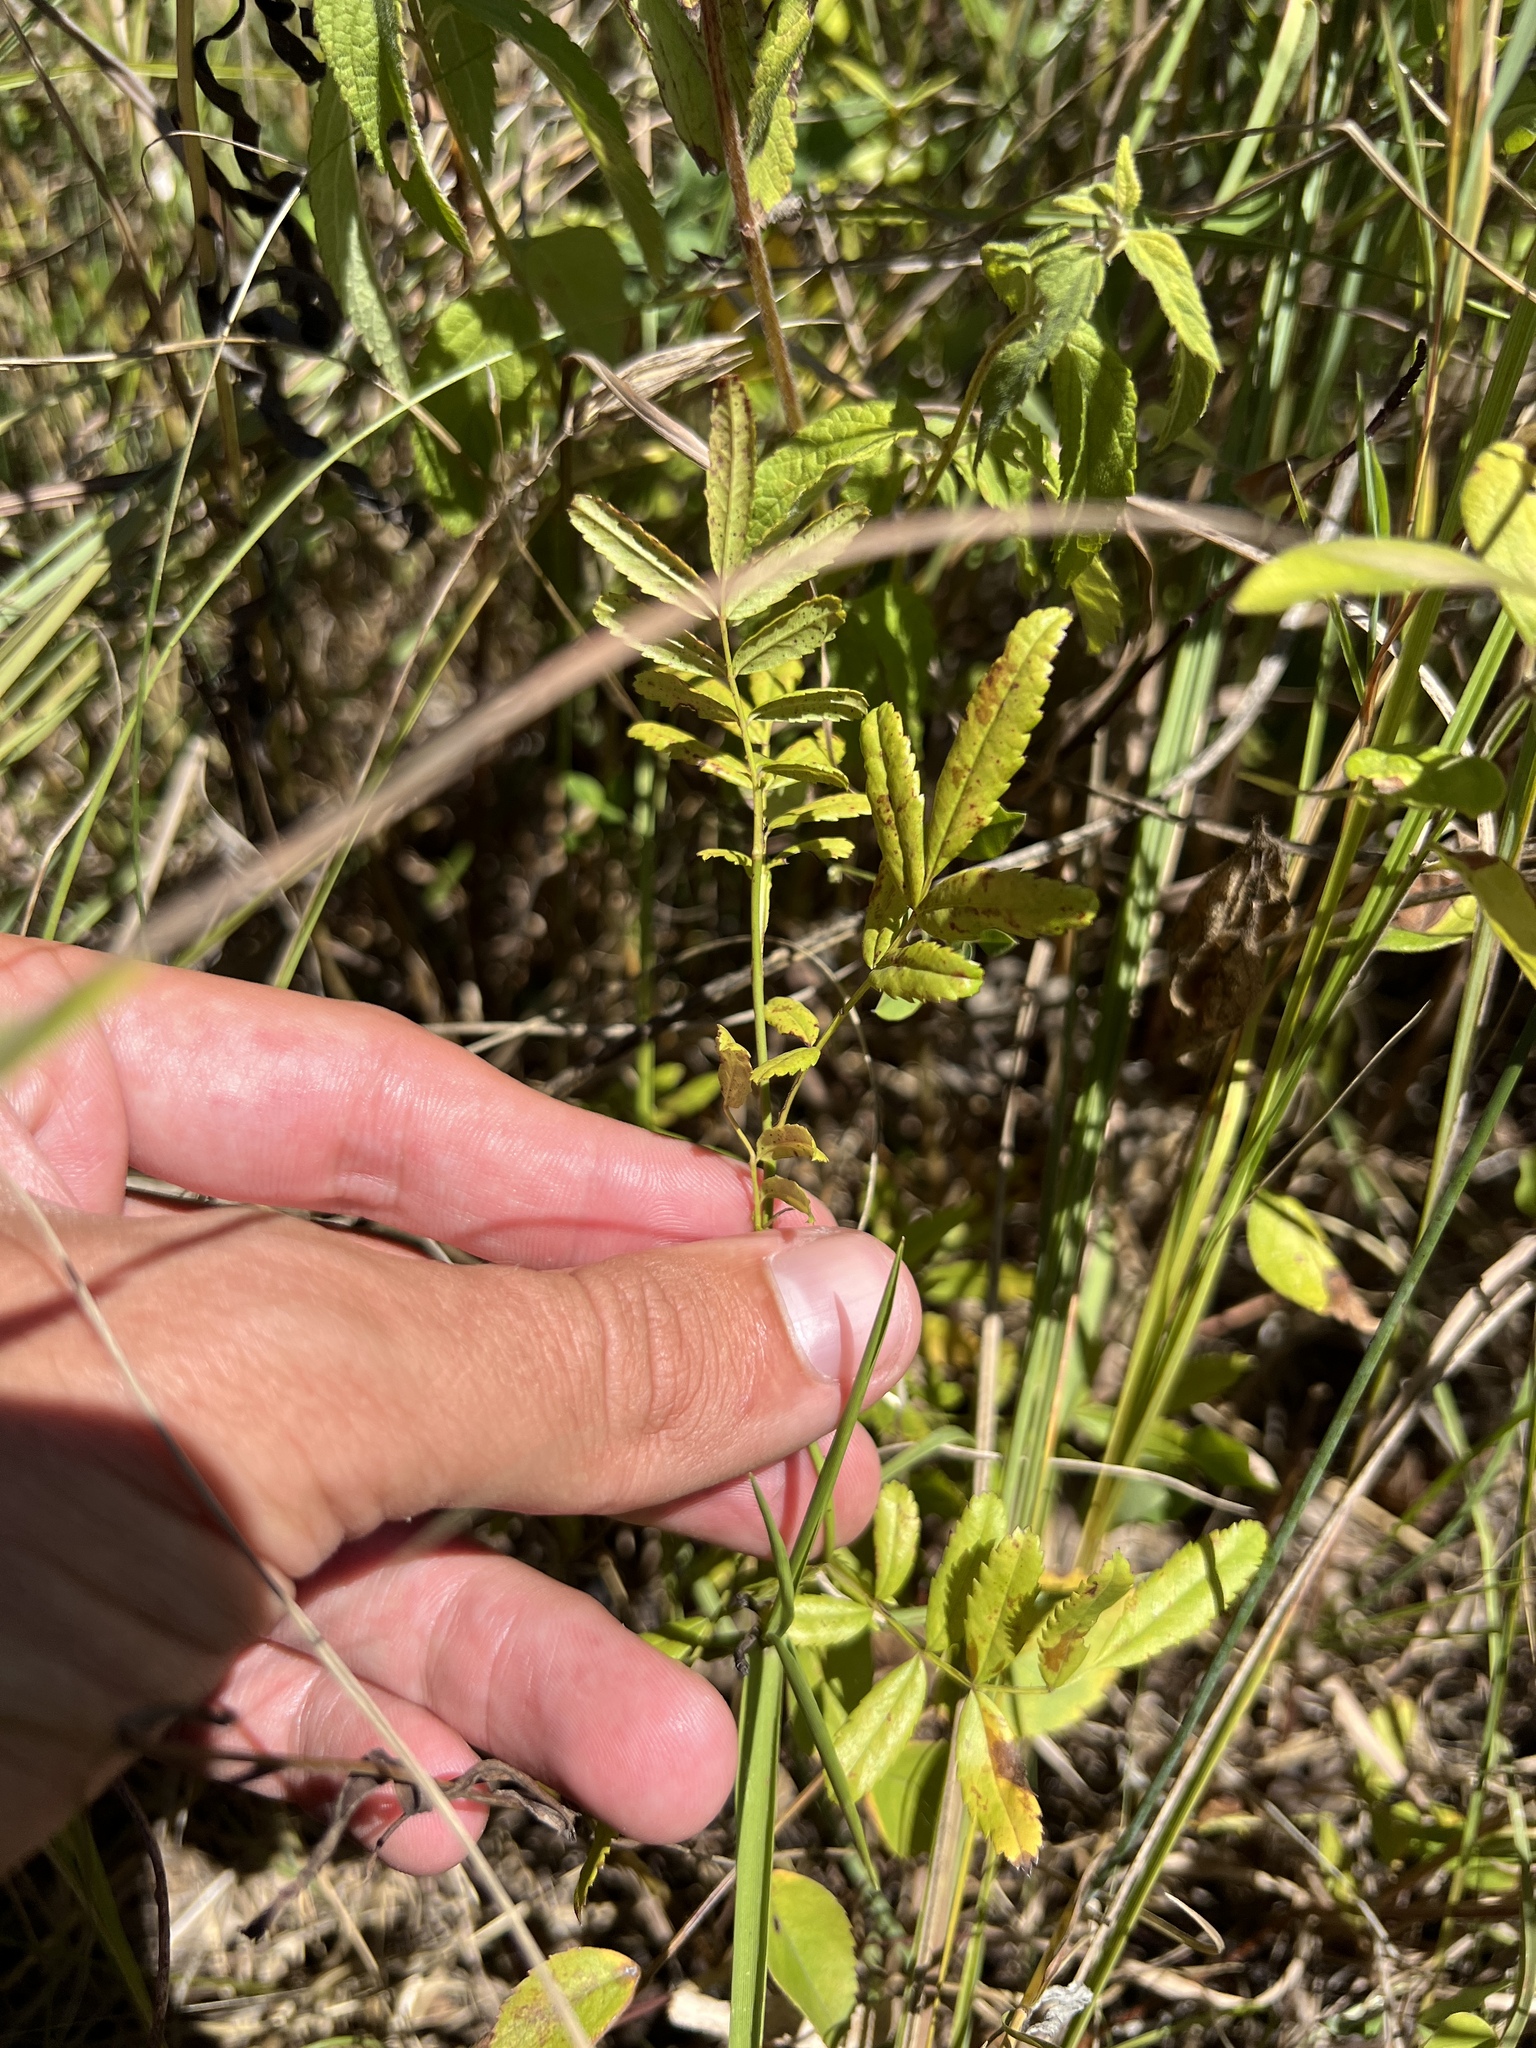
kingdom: Plantae
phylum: Tracheophyta
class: Magnoliopsida
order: Rosales
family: Rosaceae
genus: Rosa
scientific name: Rosa foliolosa
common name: White prairie rose
